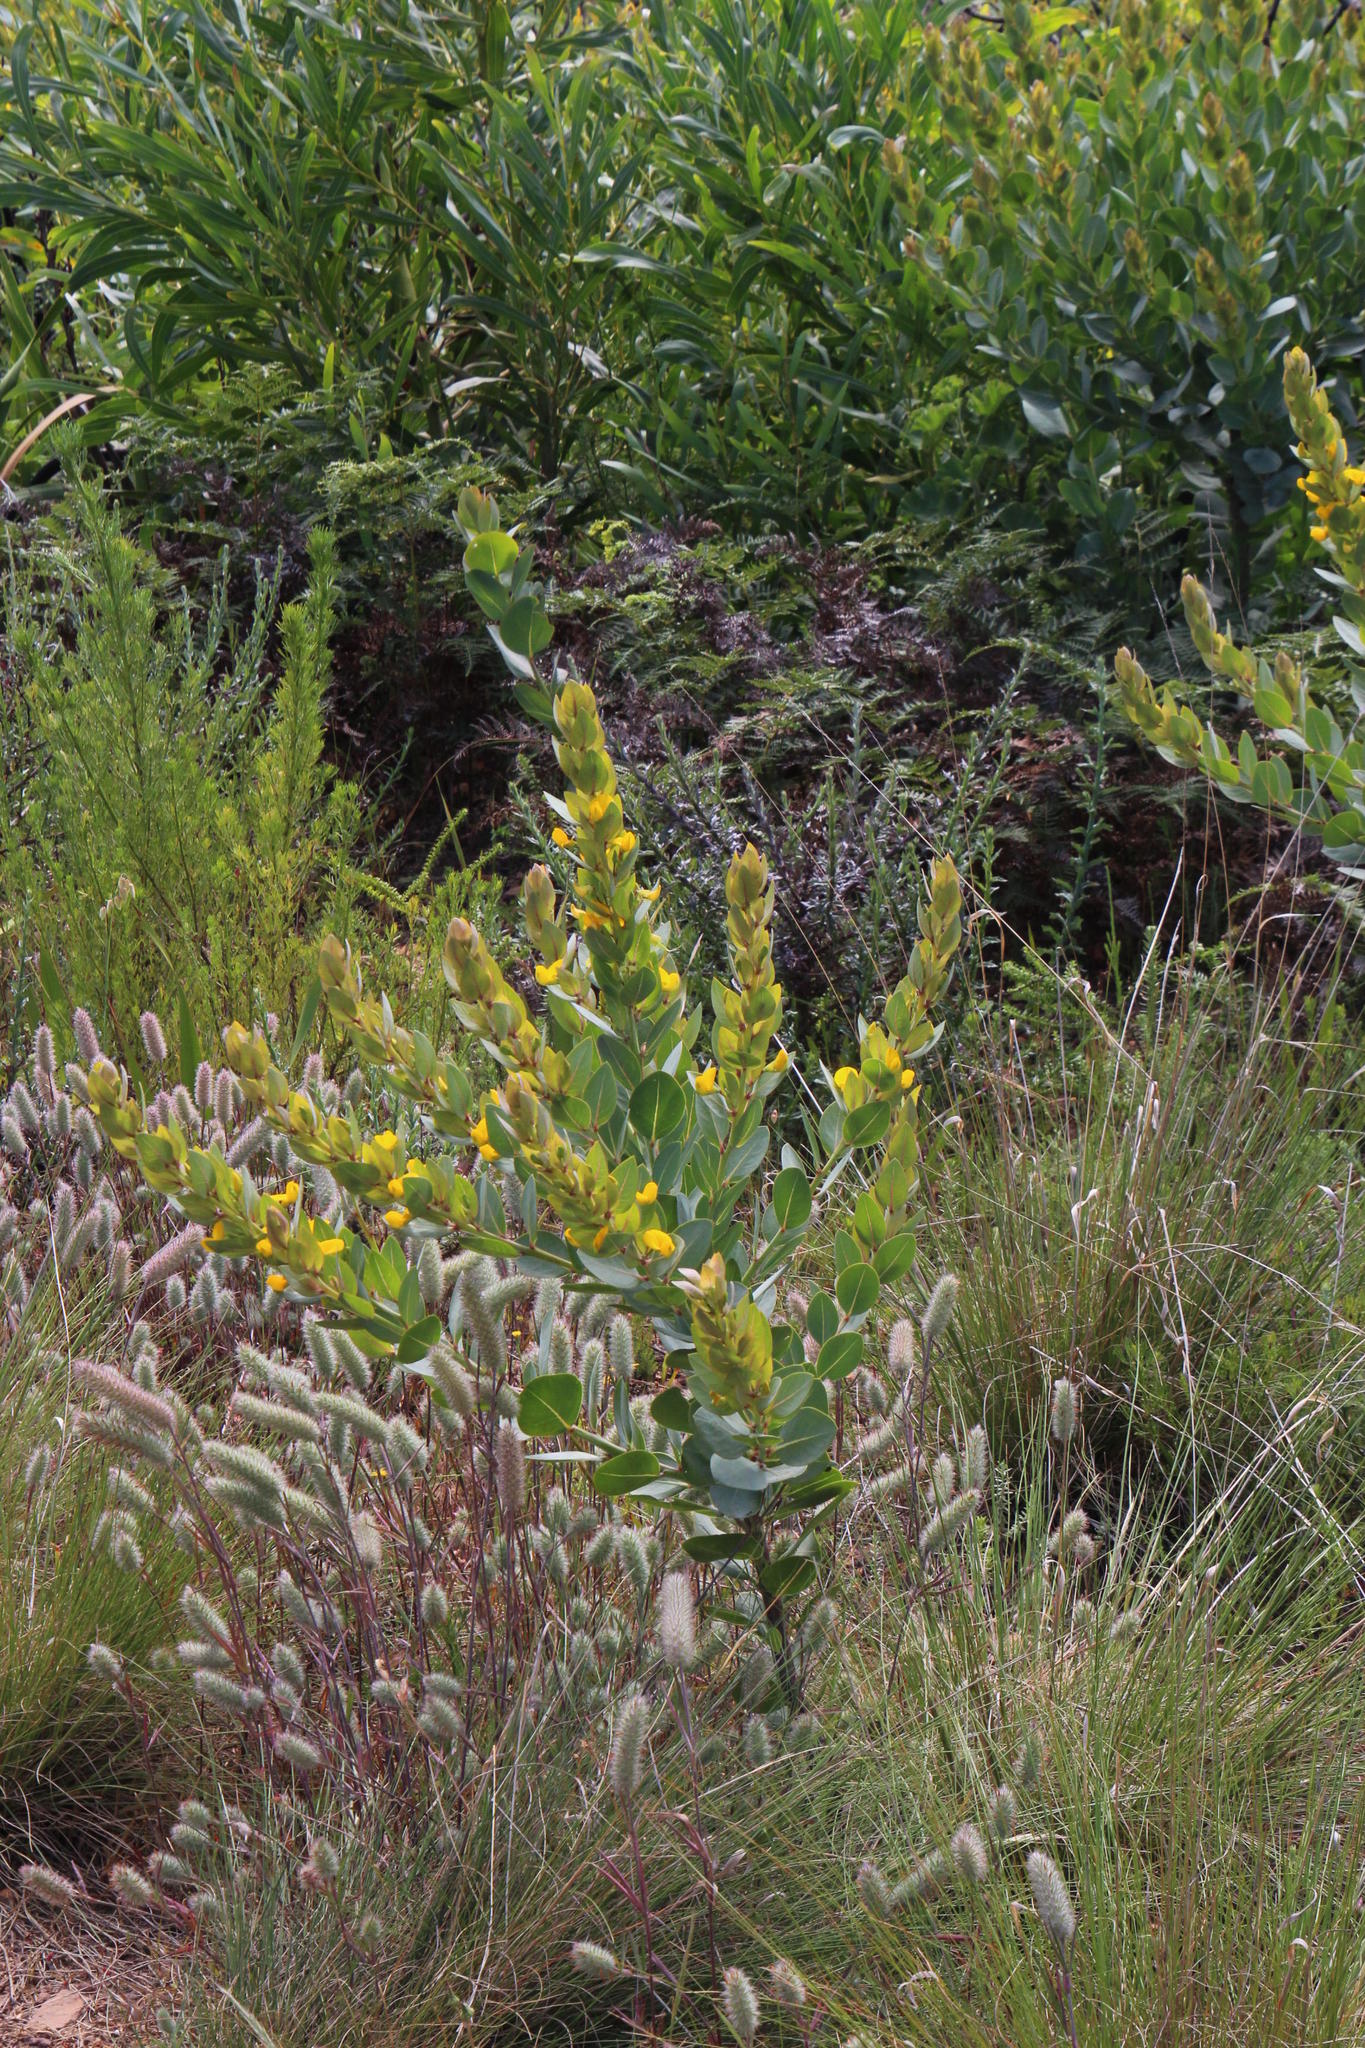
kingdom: Plantae
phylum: Tracheophyta
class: Magnoliopsida
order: Fabales
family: Fabaceae
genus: Rafnia
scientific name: Rafnia triflora
